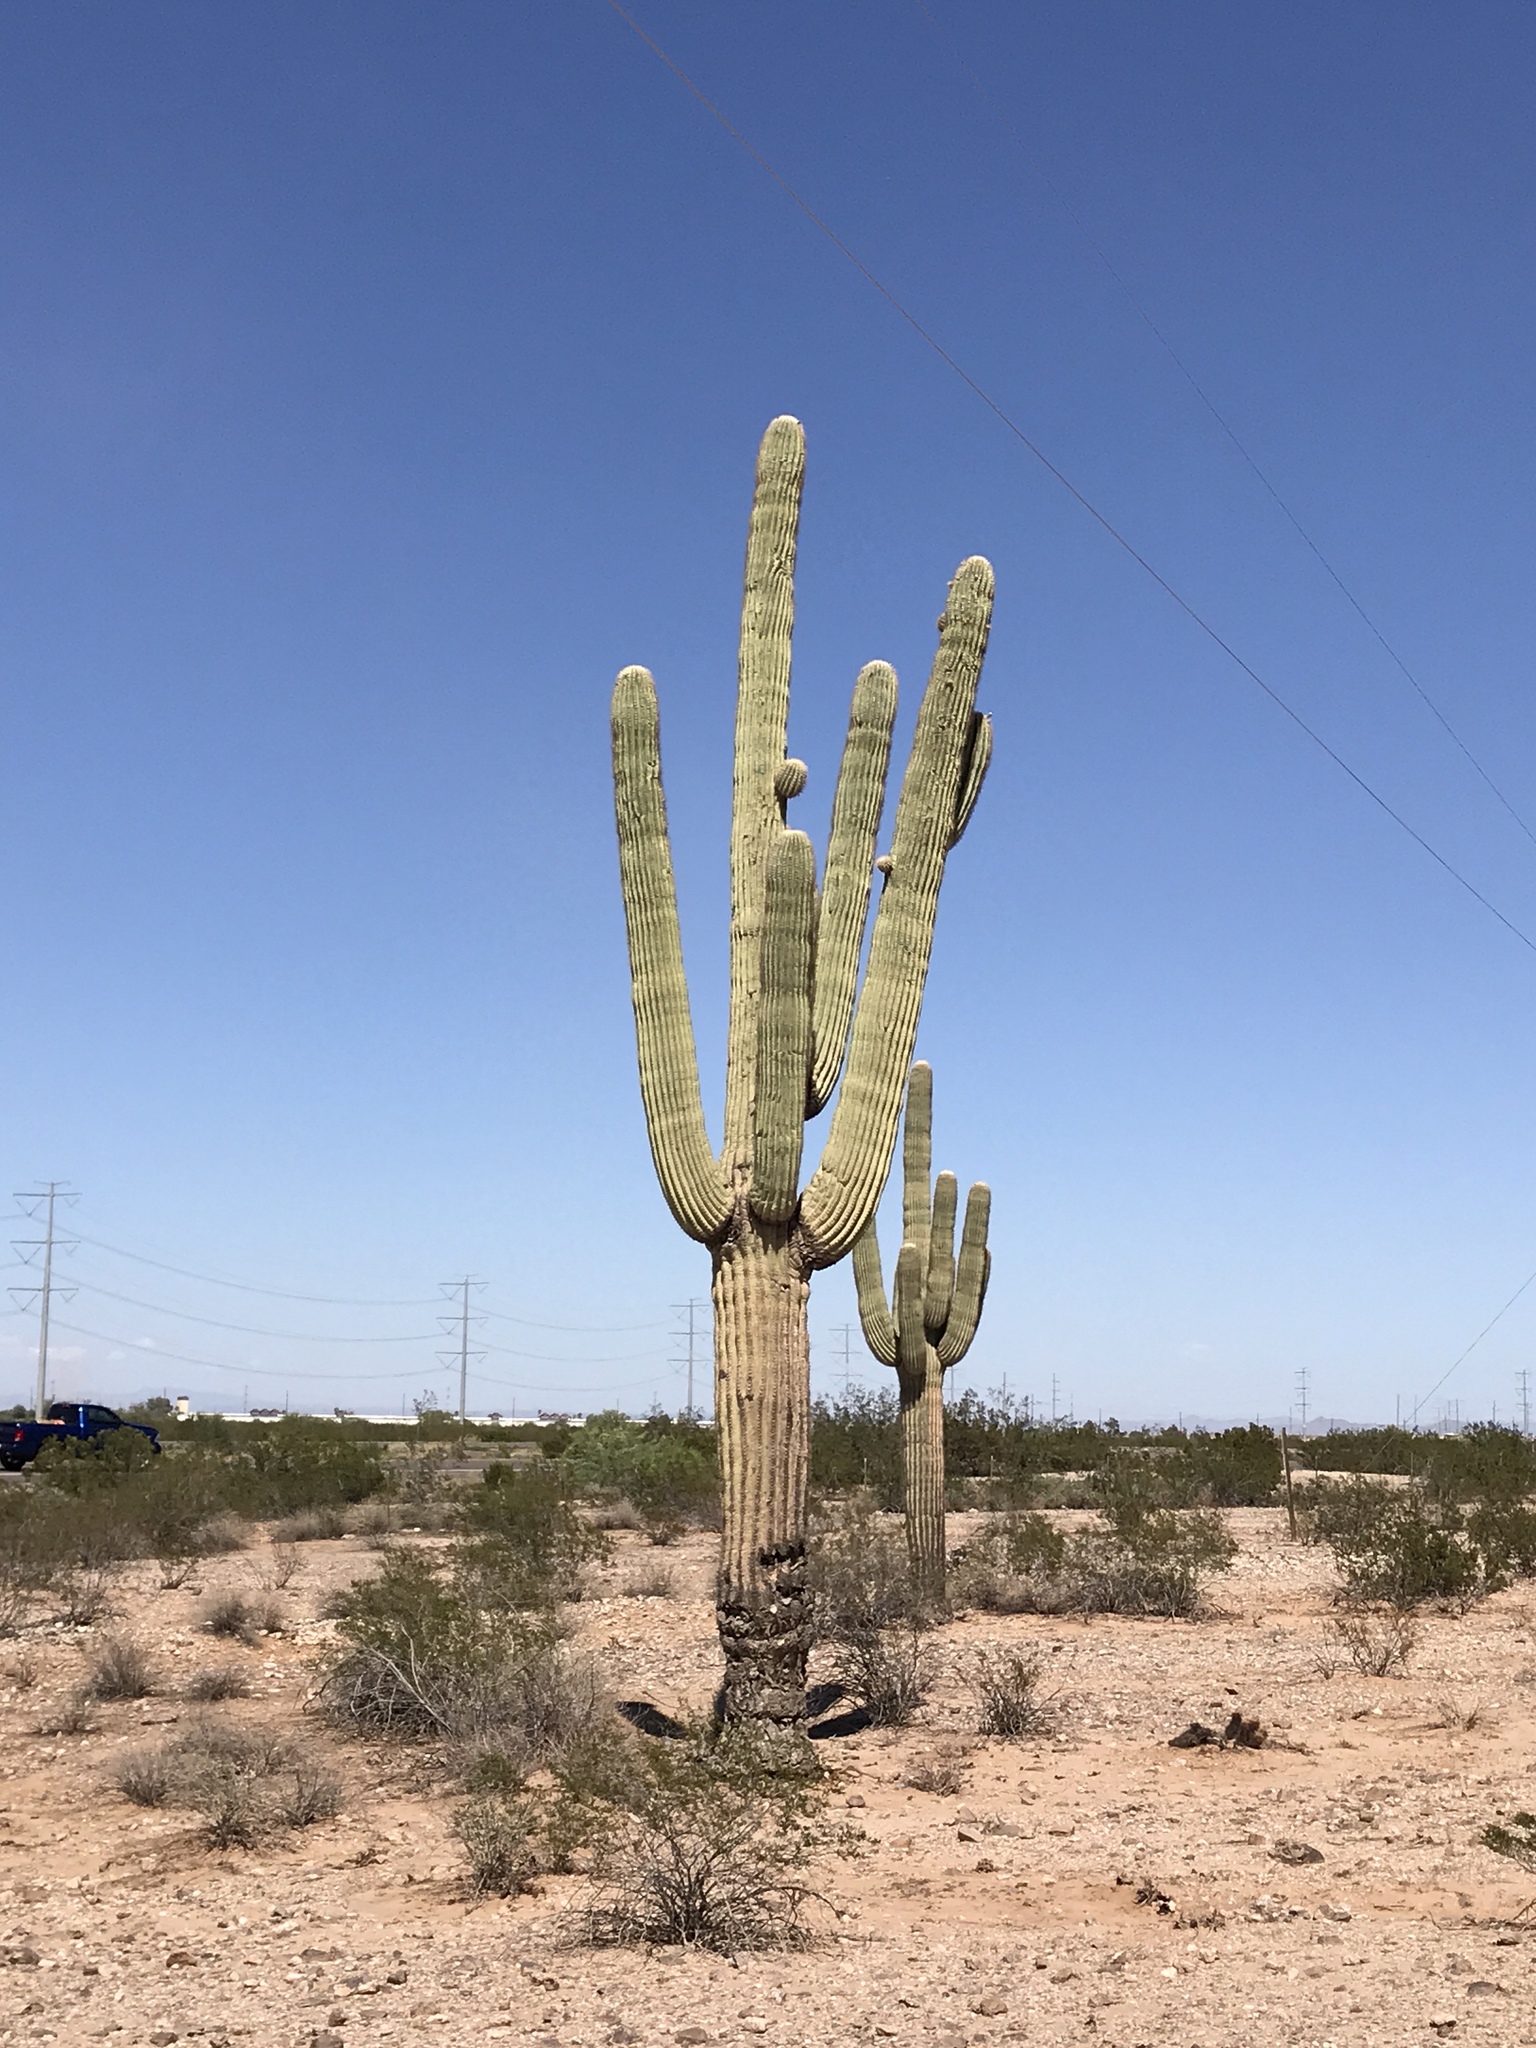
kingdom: Plantae
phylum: Tracheophyta
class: Magnoliopsida
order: Caryophyllales
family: Cactaceae
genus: Carnegiea
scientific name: Carnegiea gigantea
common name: Saguaro
